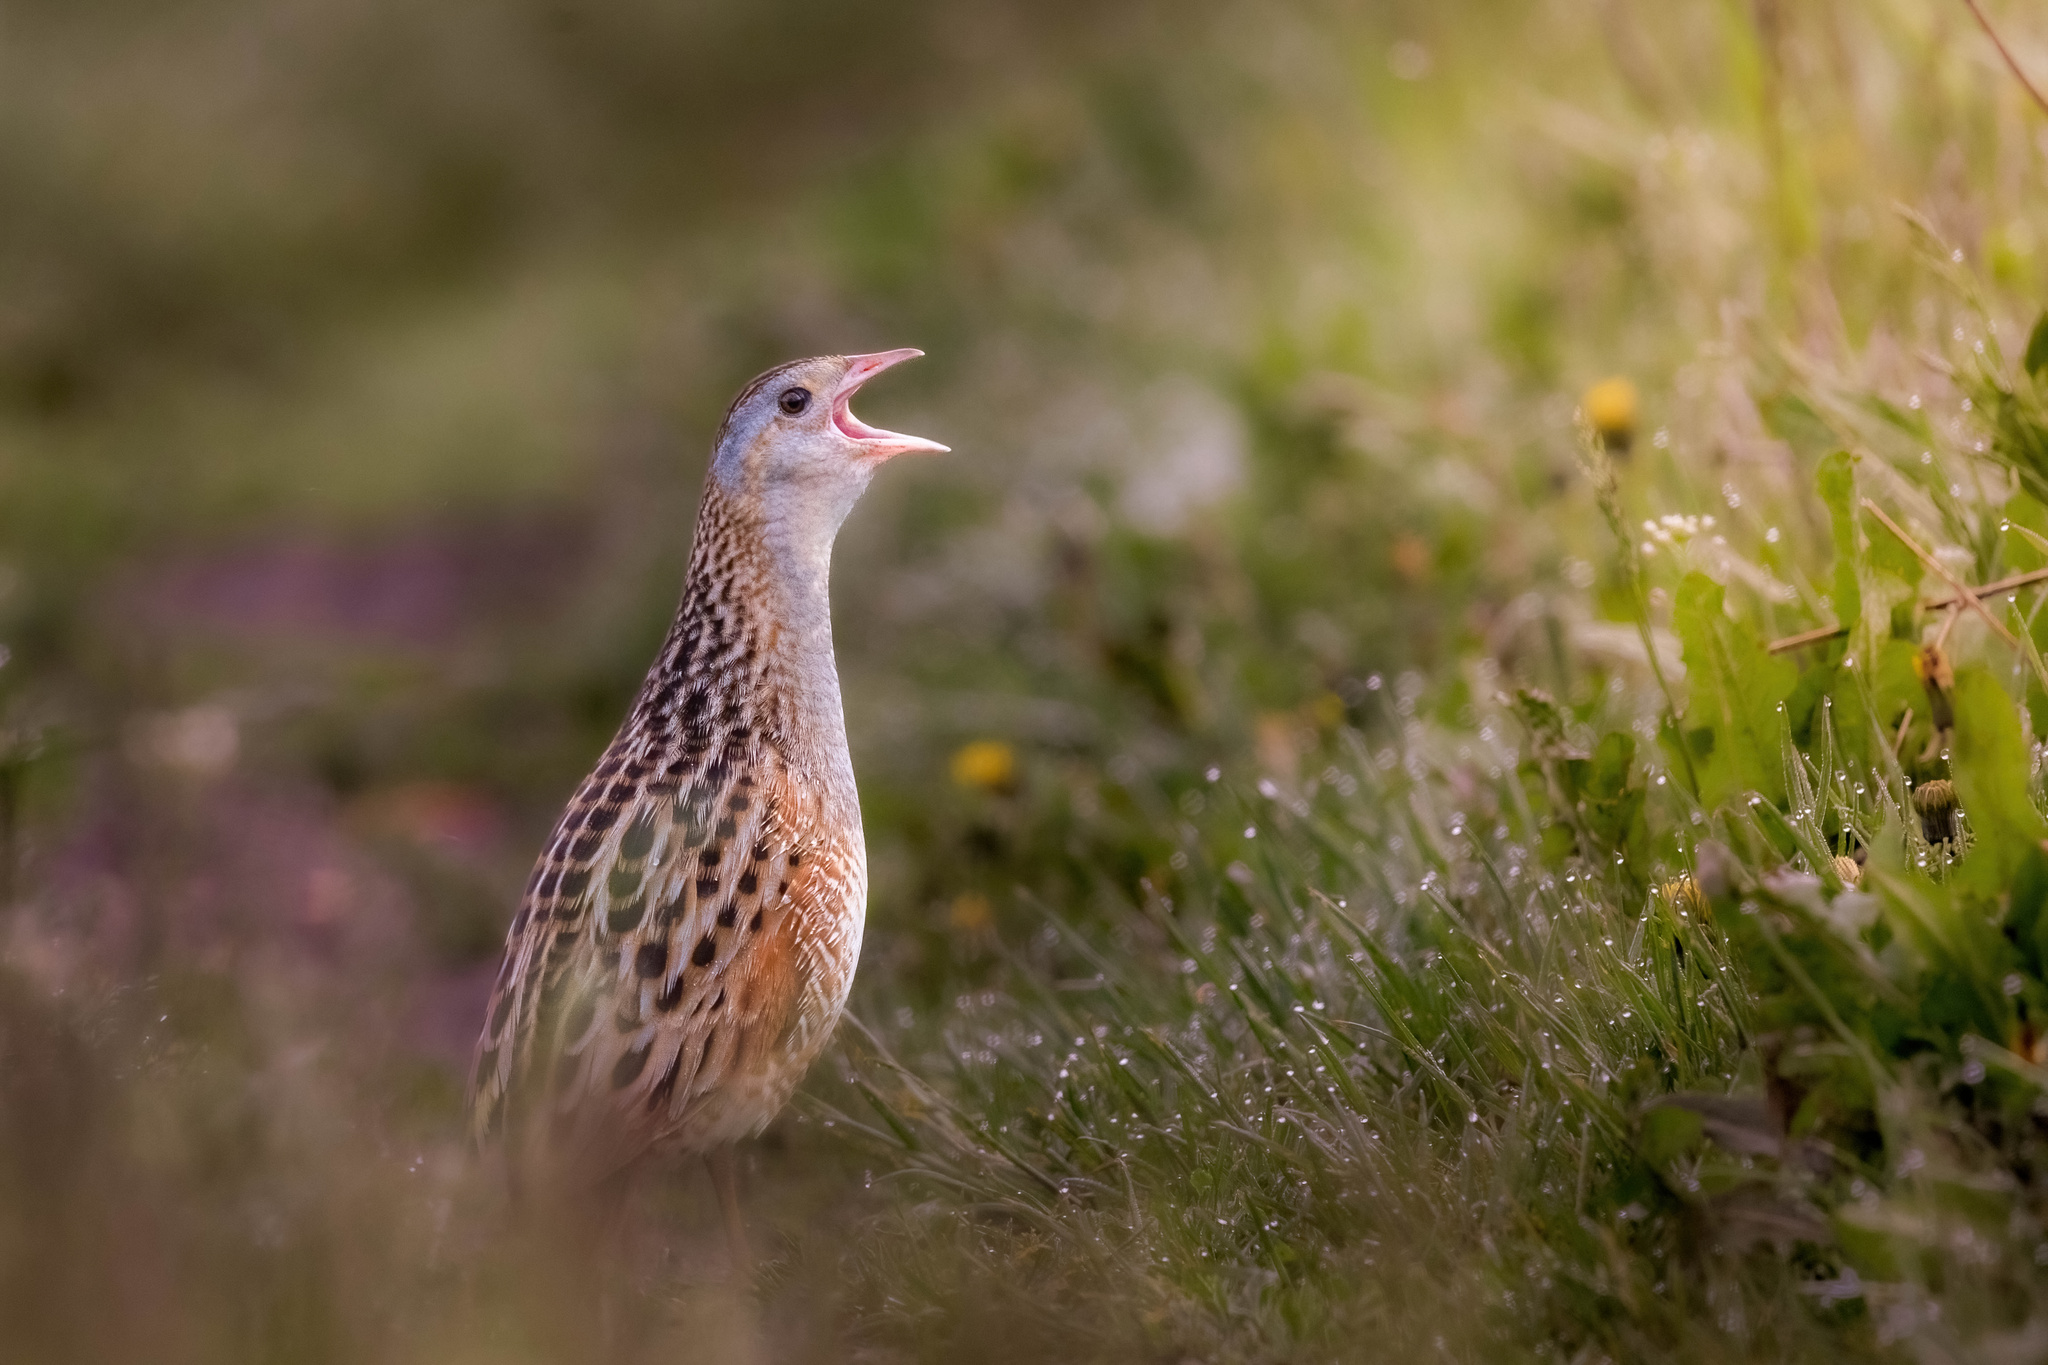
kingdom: Animalia
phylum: Chordata
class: Aves
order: Gruiformes
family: Rallidae
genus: Crex
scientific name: Crex crex
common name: Corn crake
